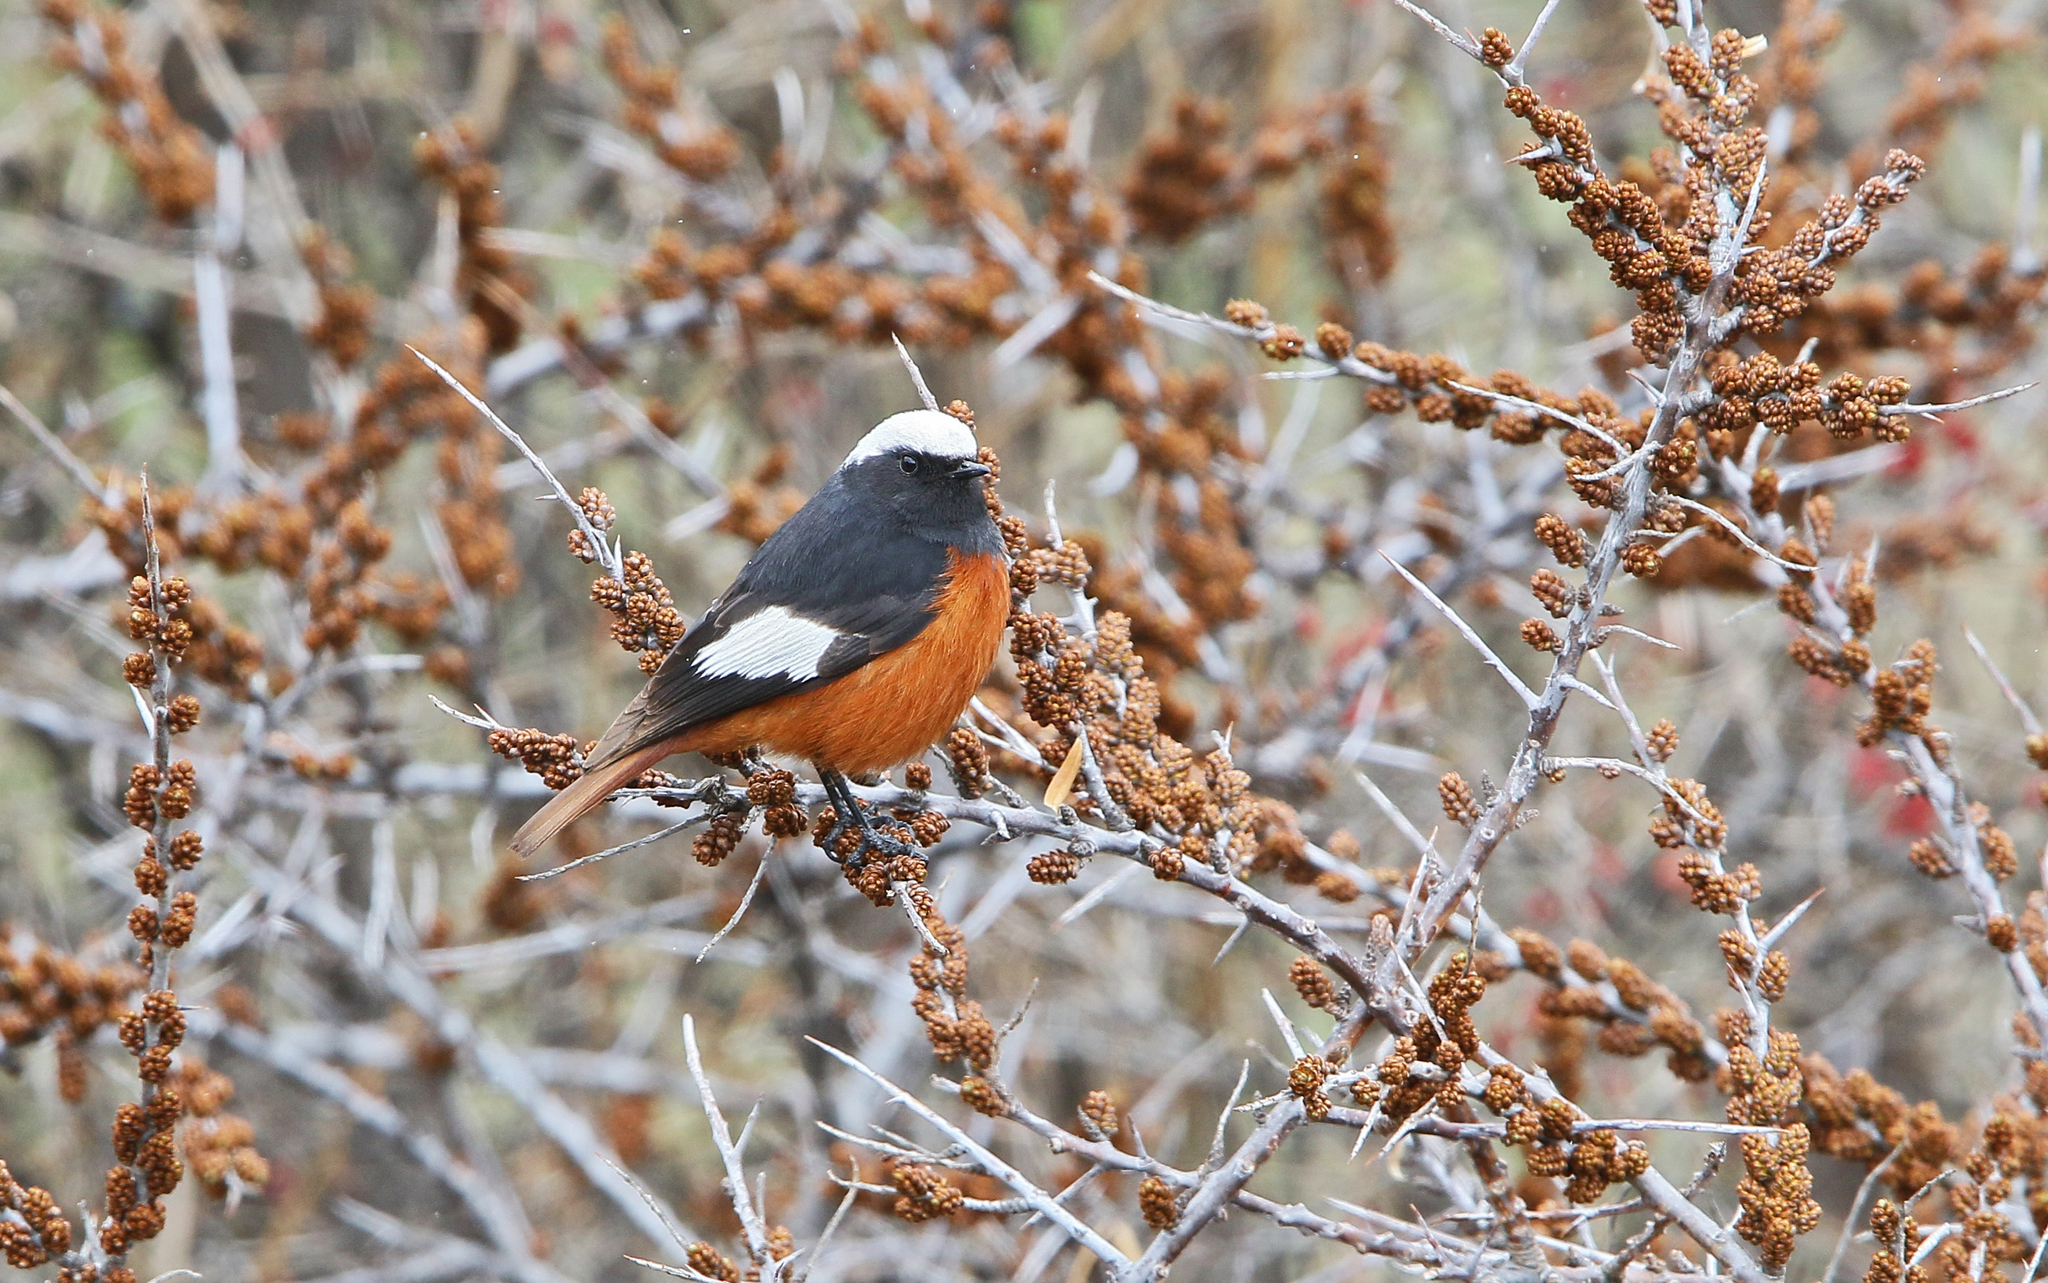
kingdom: Animalia
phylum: Chordata
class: Aves
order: Passeriformes
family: Muscicapidae
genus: Phoenicurus
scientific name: Phoenicurus erythrogastrus
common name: Güldenstädt's redstart
